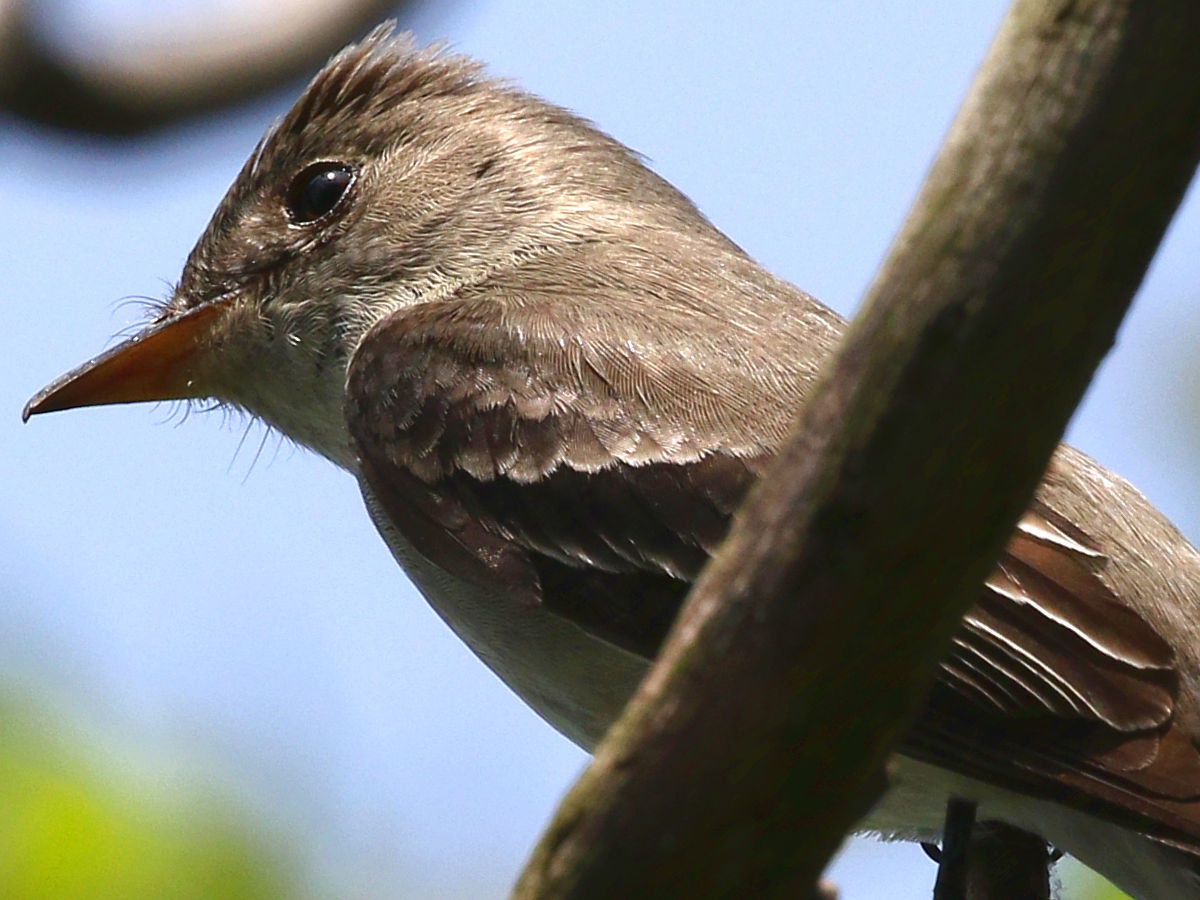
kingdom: Animalia
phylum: Chordata
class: Aves
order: Passeriformes
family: Tyrannidae
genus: Contopus
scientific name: Contopus virens
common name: Eastern wood-pewee
